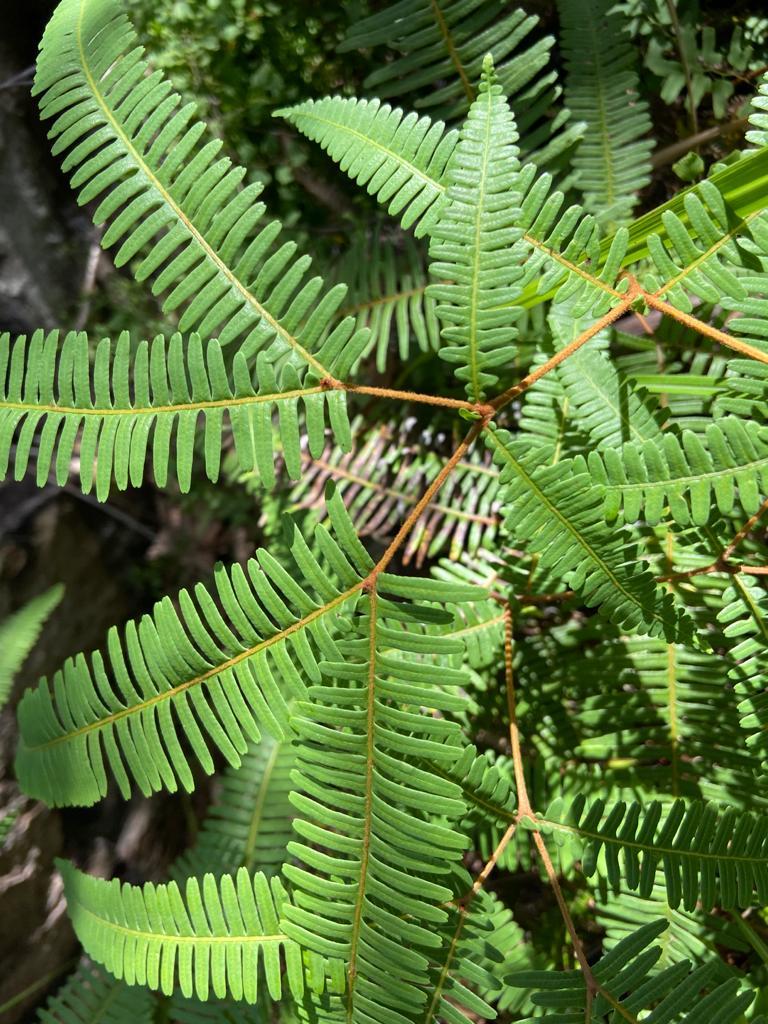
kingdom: Plantae
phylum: Tracheophyta
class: Polypodiopsida
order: Gleicheniales
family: Gleicheniaceae
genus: Dicranopteris
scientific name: Dicranopteris linearis
